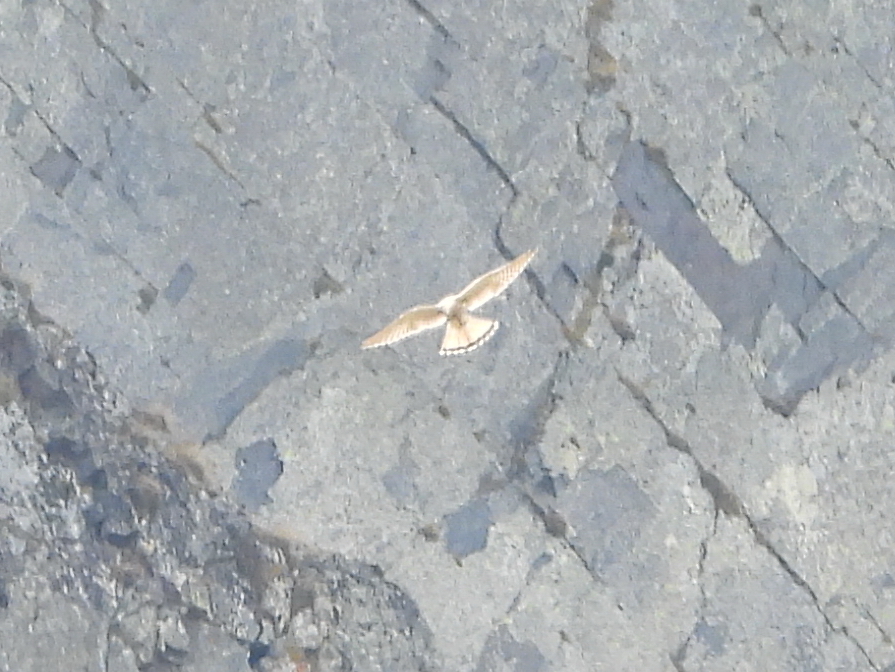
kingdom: Animalia
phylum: Chordata
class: Aves
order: Falconiformes
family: Falconidae
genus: Falco
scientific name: Falco tinnunculus
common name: Common kestrel
